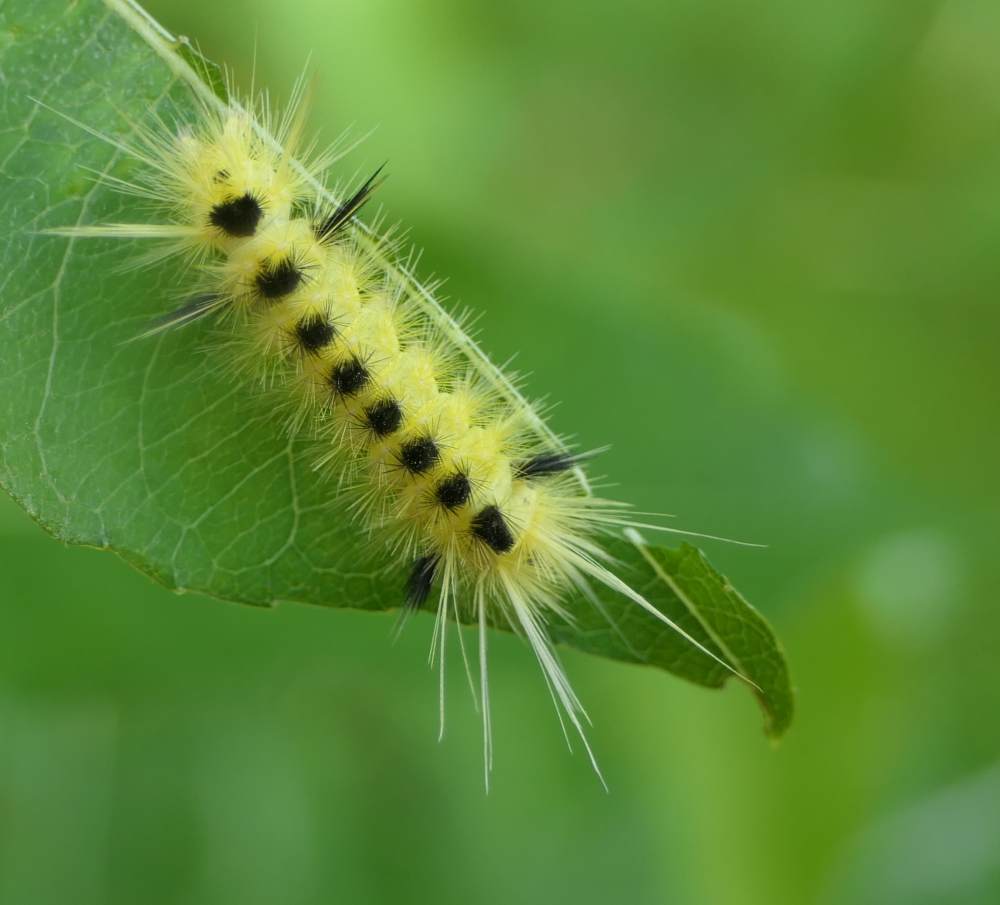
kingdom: Animalia
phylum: Arthropoda
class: Insecta
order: Lepidoptera
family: Erebidae
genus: Lophocampa
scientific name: Lophocampa maculata
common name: Spotted tussock moth
